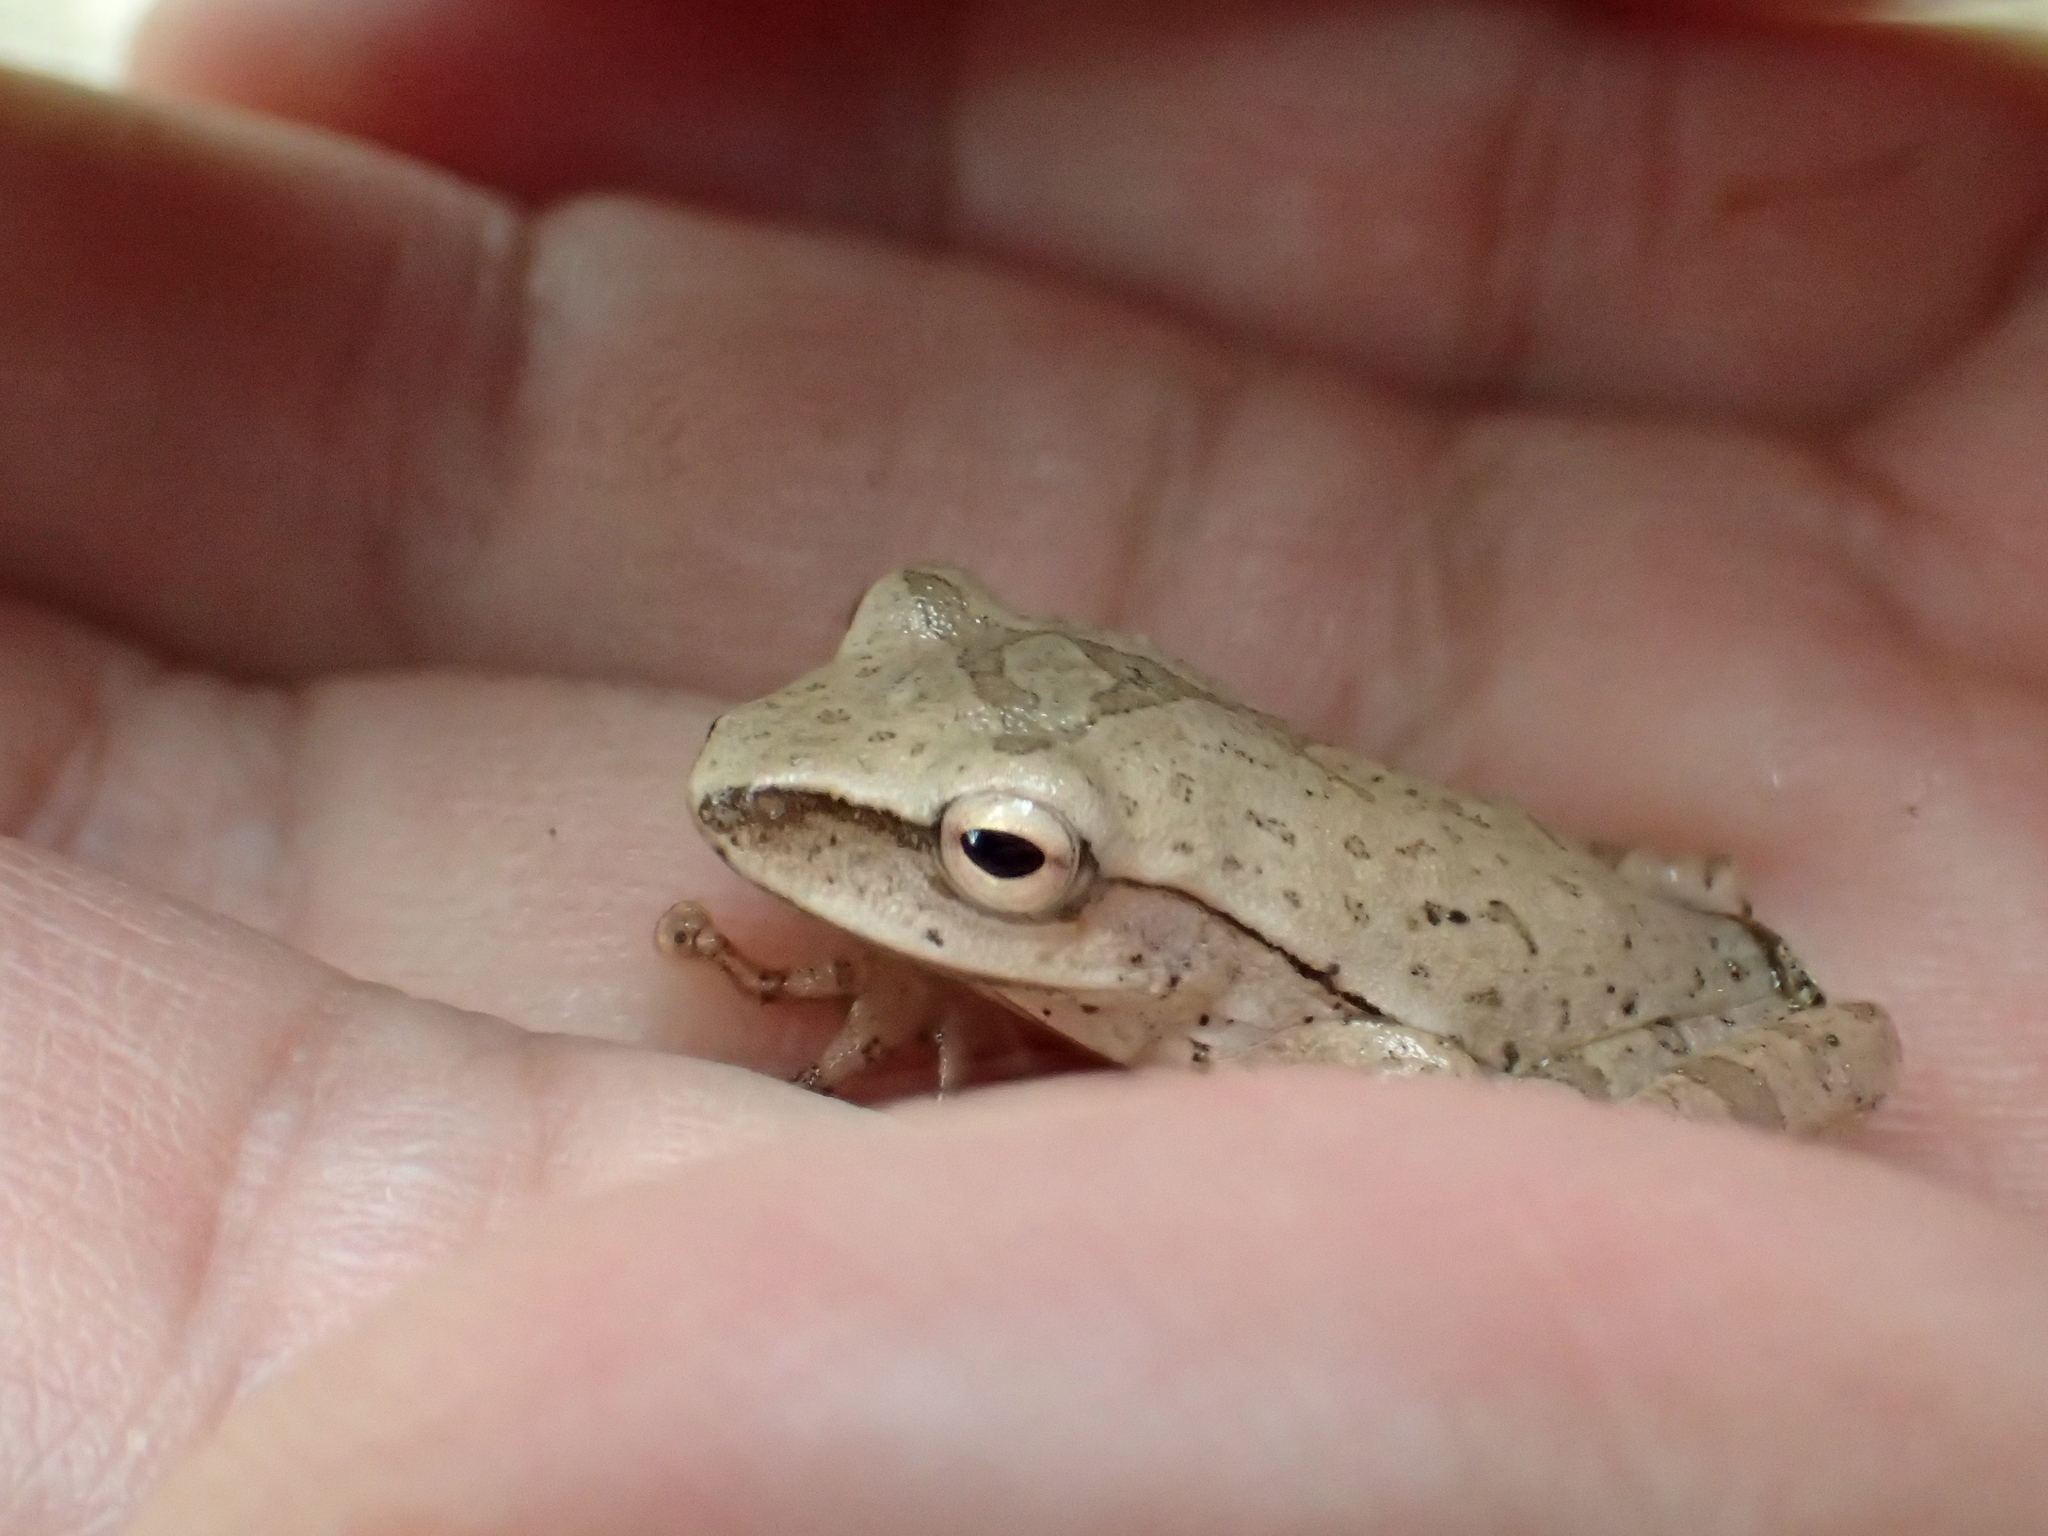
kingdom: Animalia
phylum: Chordata
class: Amphibia
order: Anura
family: Rhacophoridae
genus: Polypedates
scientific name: Polypedates megacephalus
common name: Hong kong whipping frog
